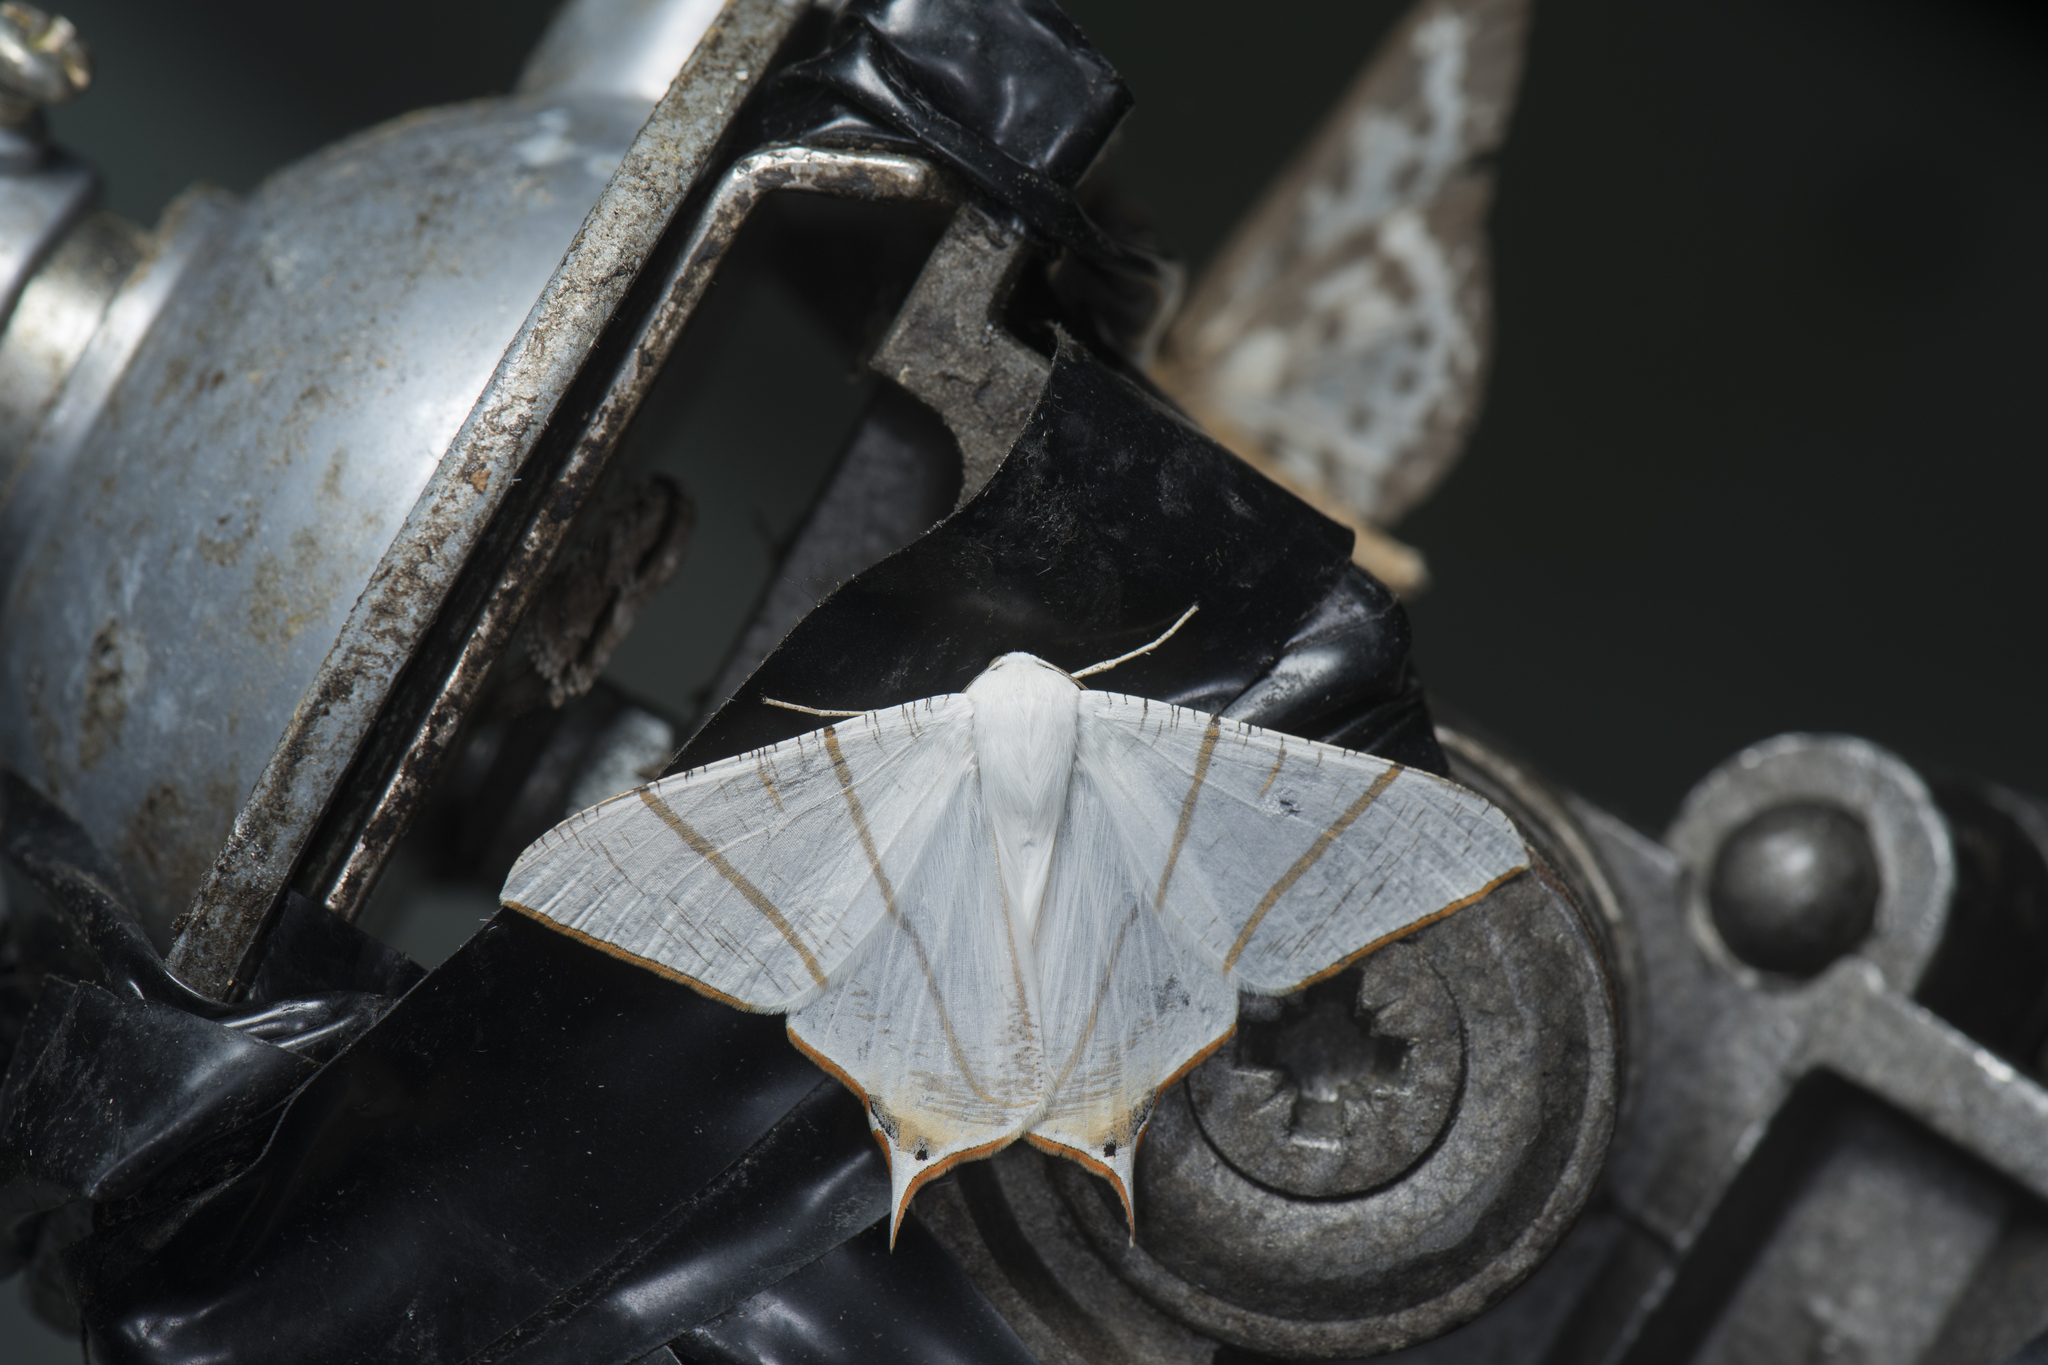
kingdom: Animalia
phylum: Arthropoda
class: Insecta
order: Lepidoptera
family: Geometridae
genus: Ourapteryx
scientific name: Ourapteryx clara
